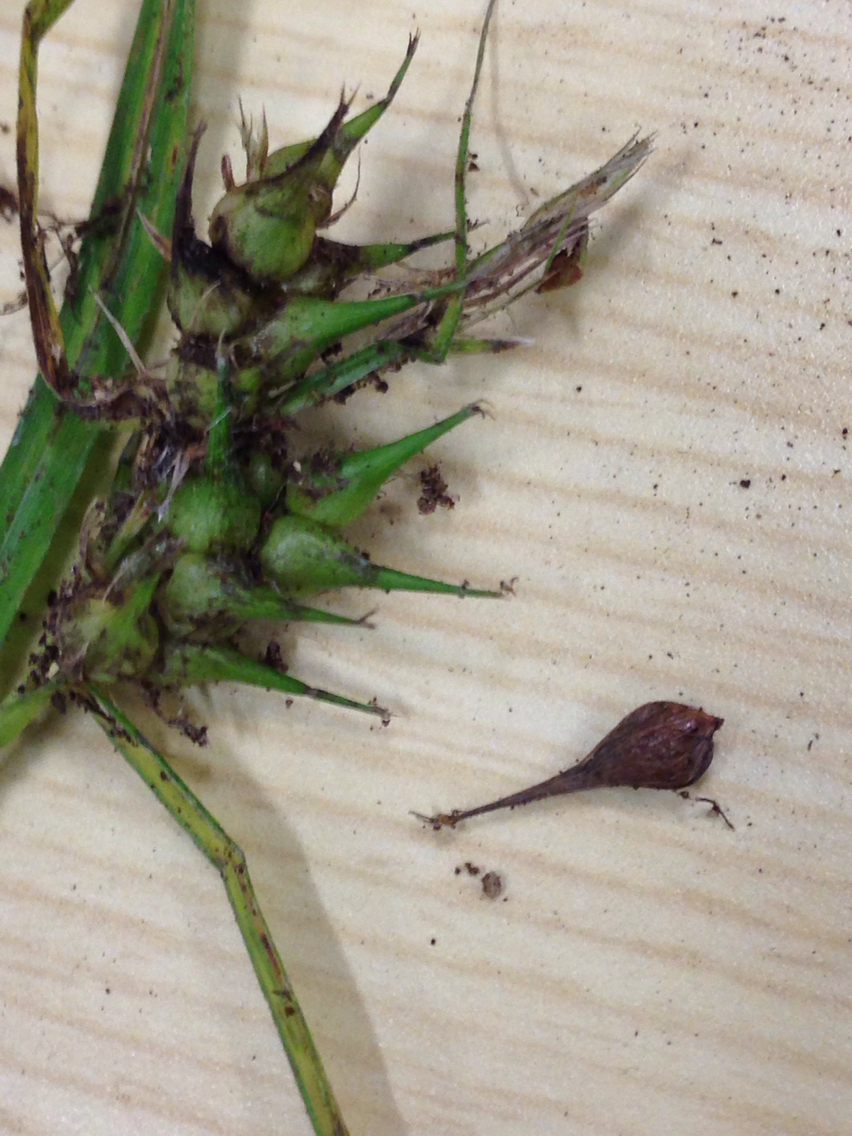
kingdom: Plantae
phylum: Tracheophyta
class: Liliopsida
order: Poales
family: Cyperaceae
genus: Carex
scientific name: Carex lupulina
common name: Hop sedge
